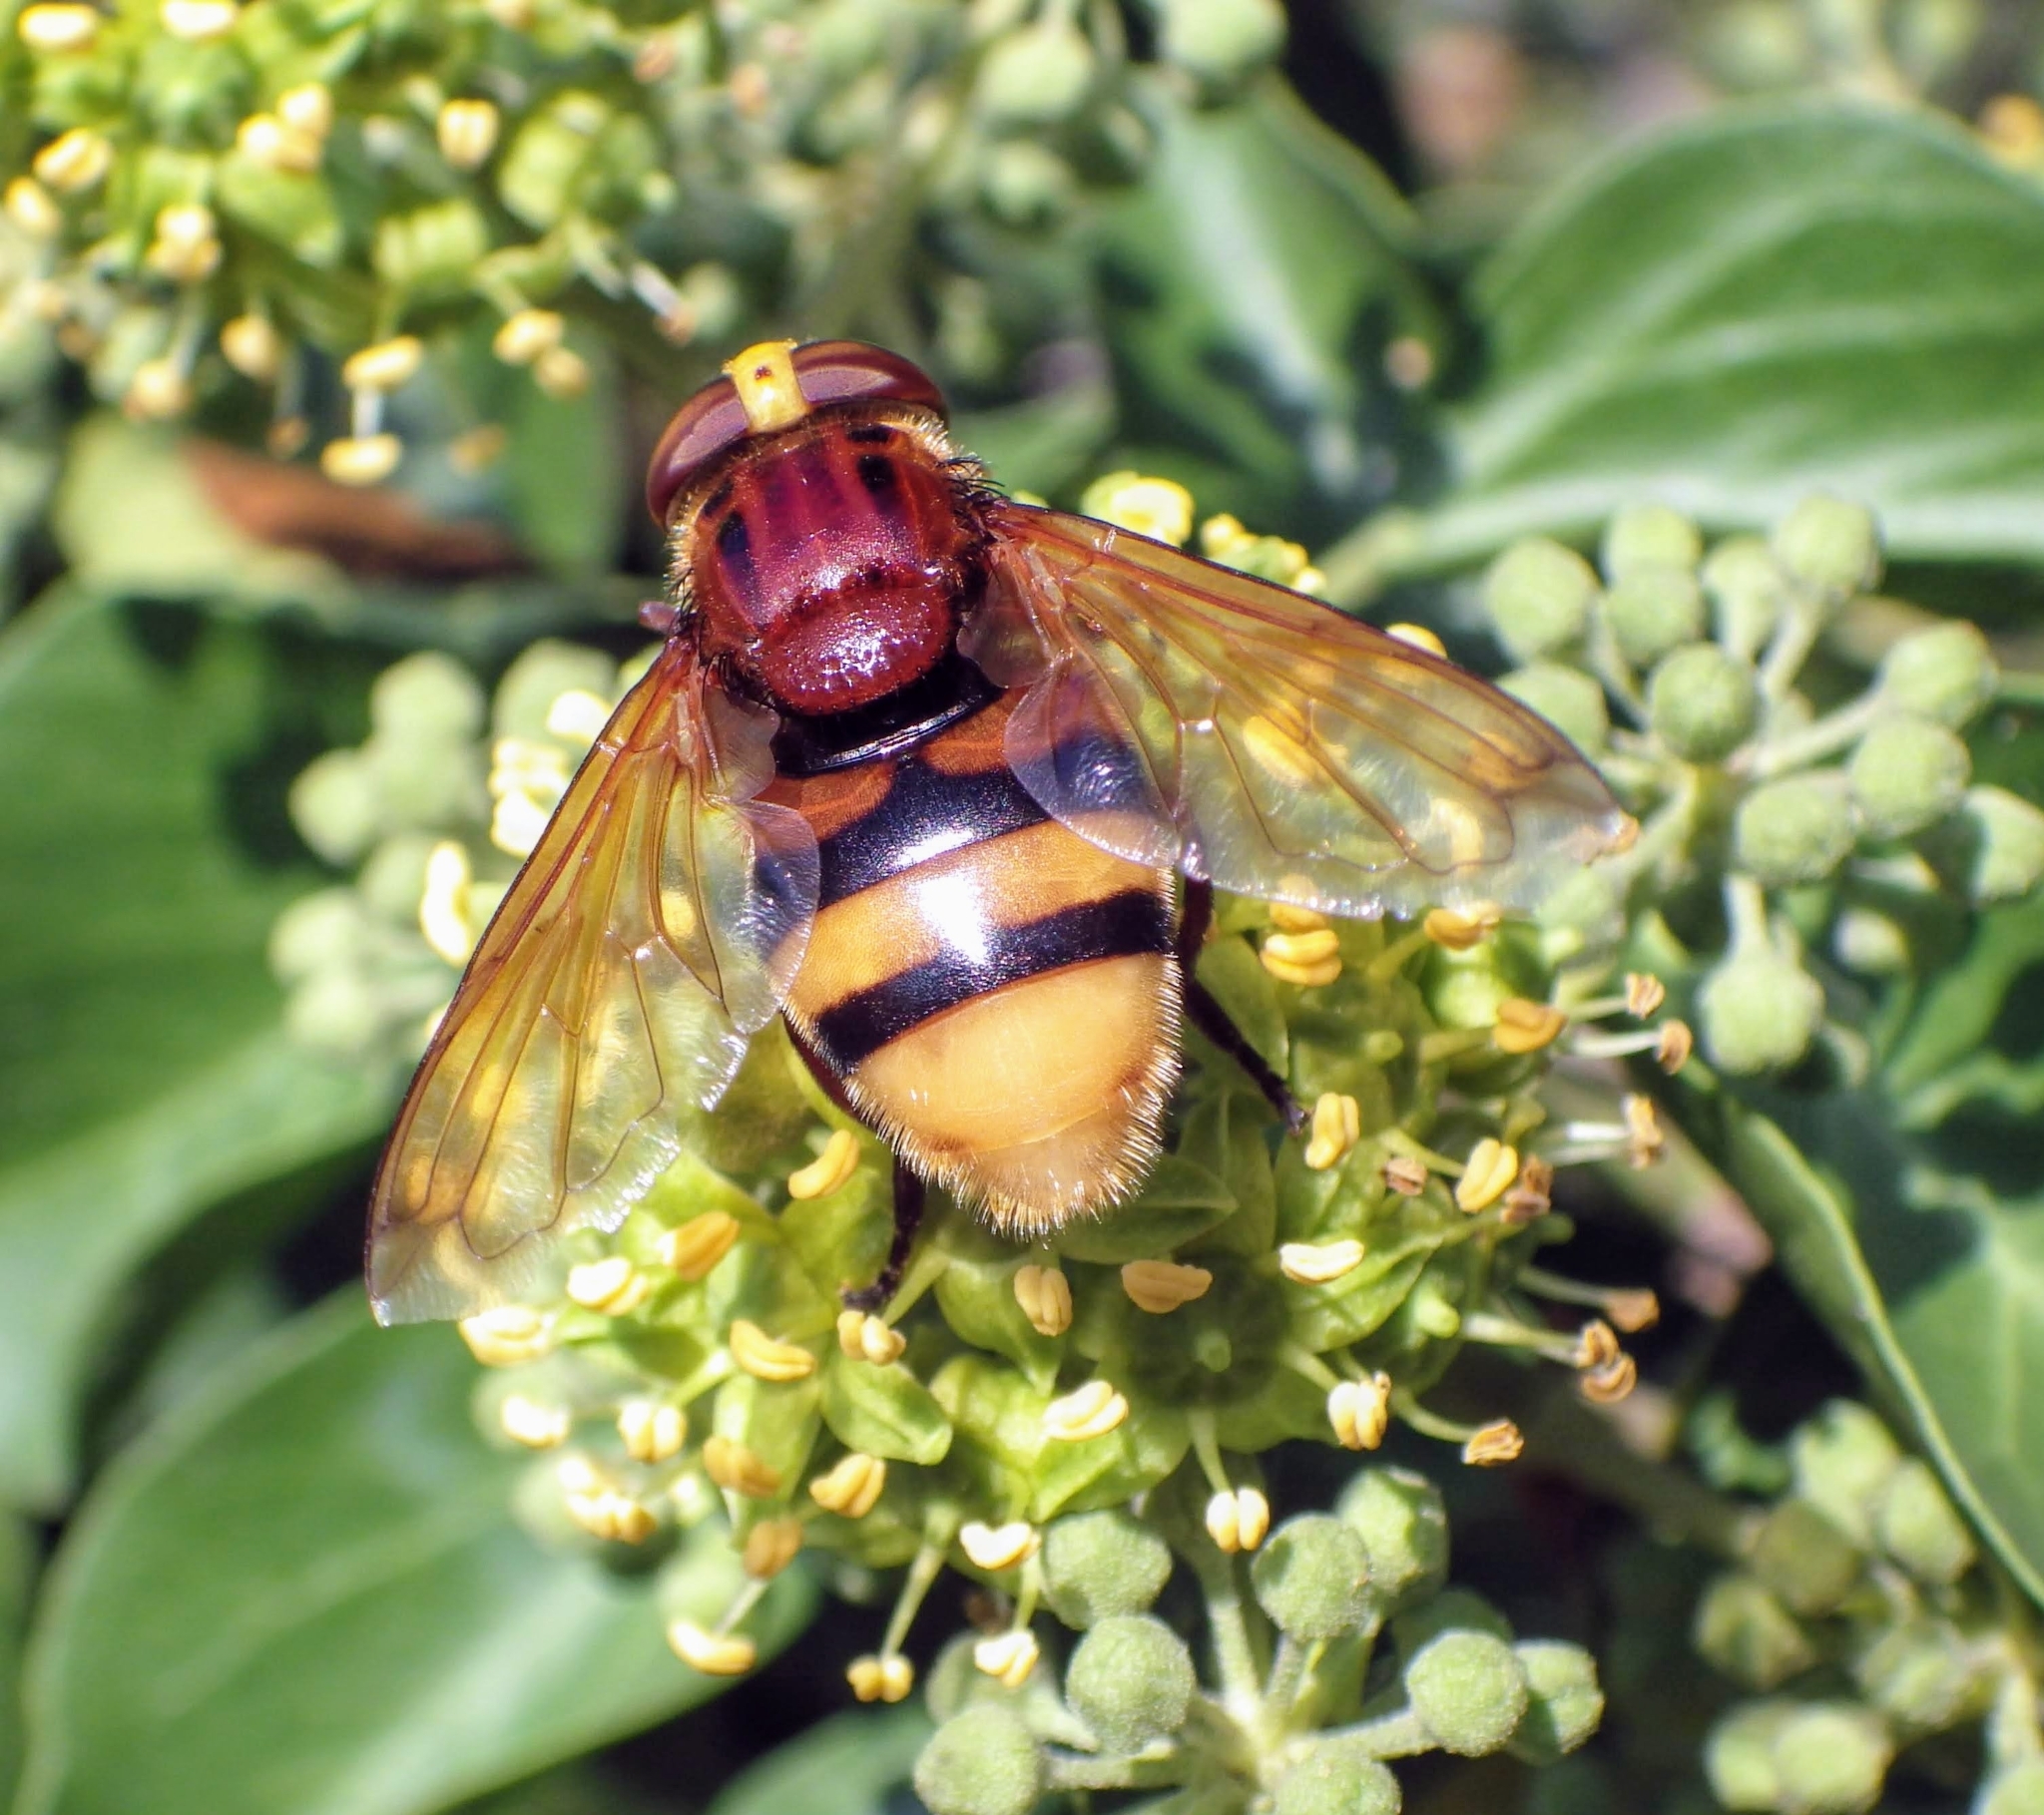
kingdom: Animalia
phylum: Arthropoda
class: Insecta
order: Diptera
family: Syrphidae
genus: Volucella
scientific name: Volucella zonaria
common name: Hornet hoverfly
